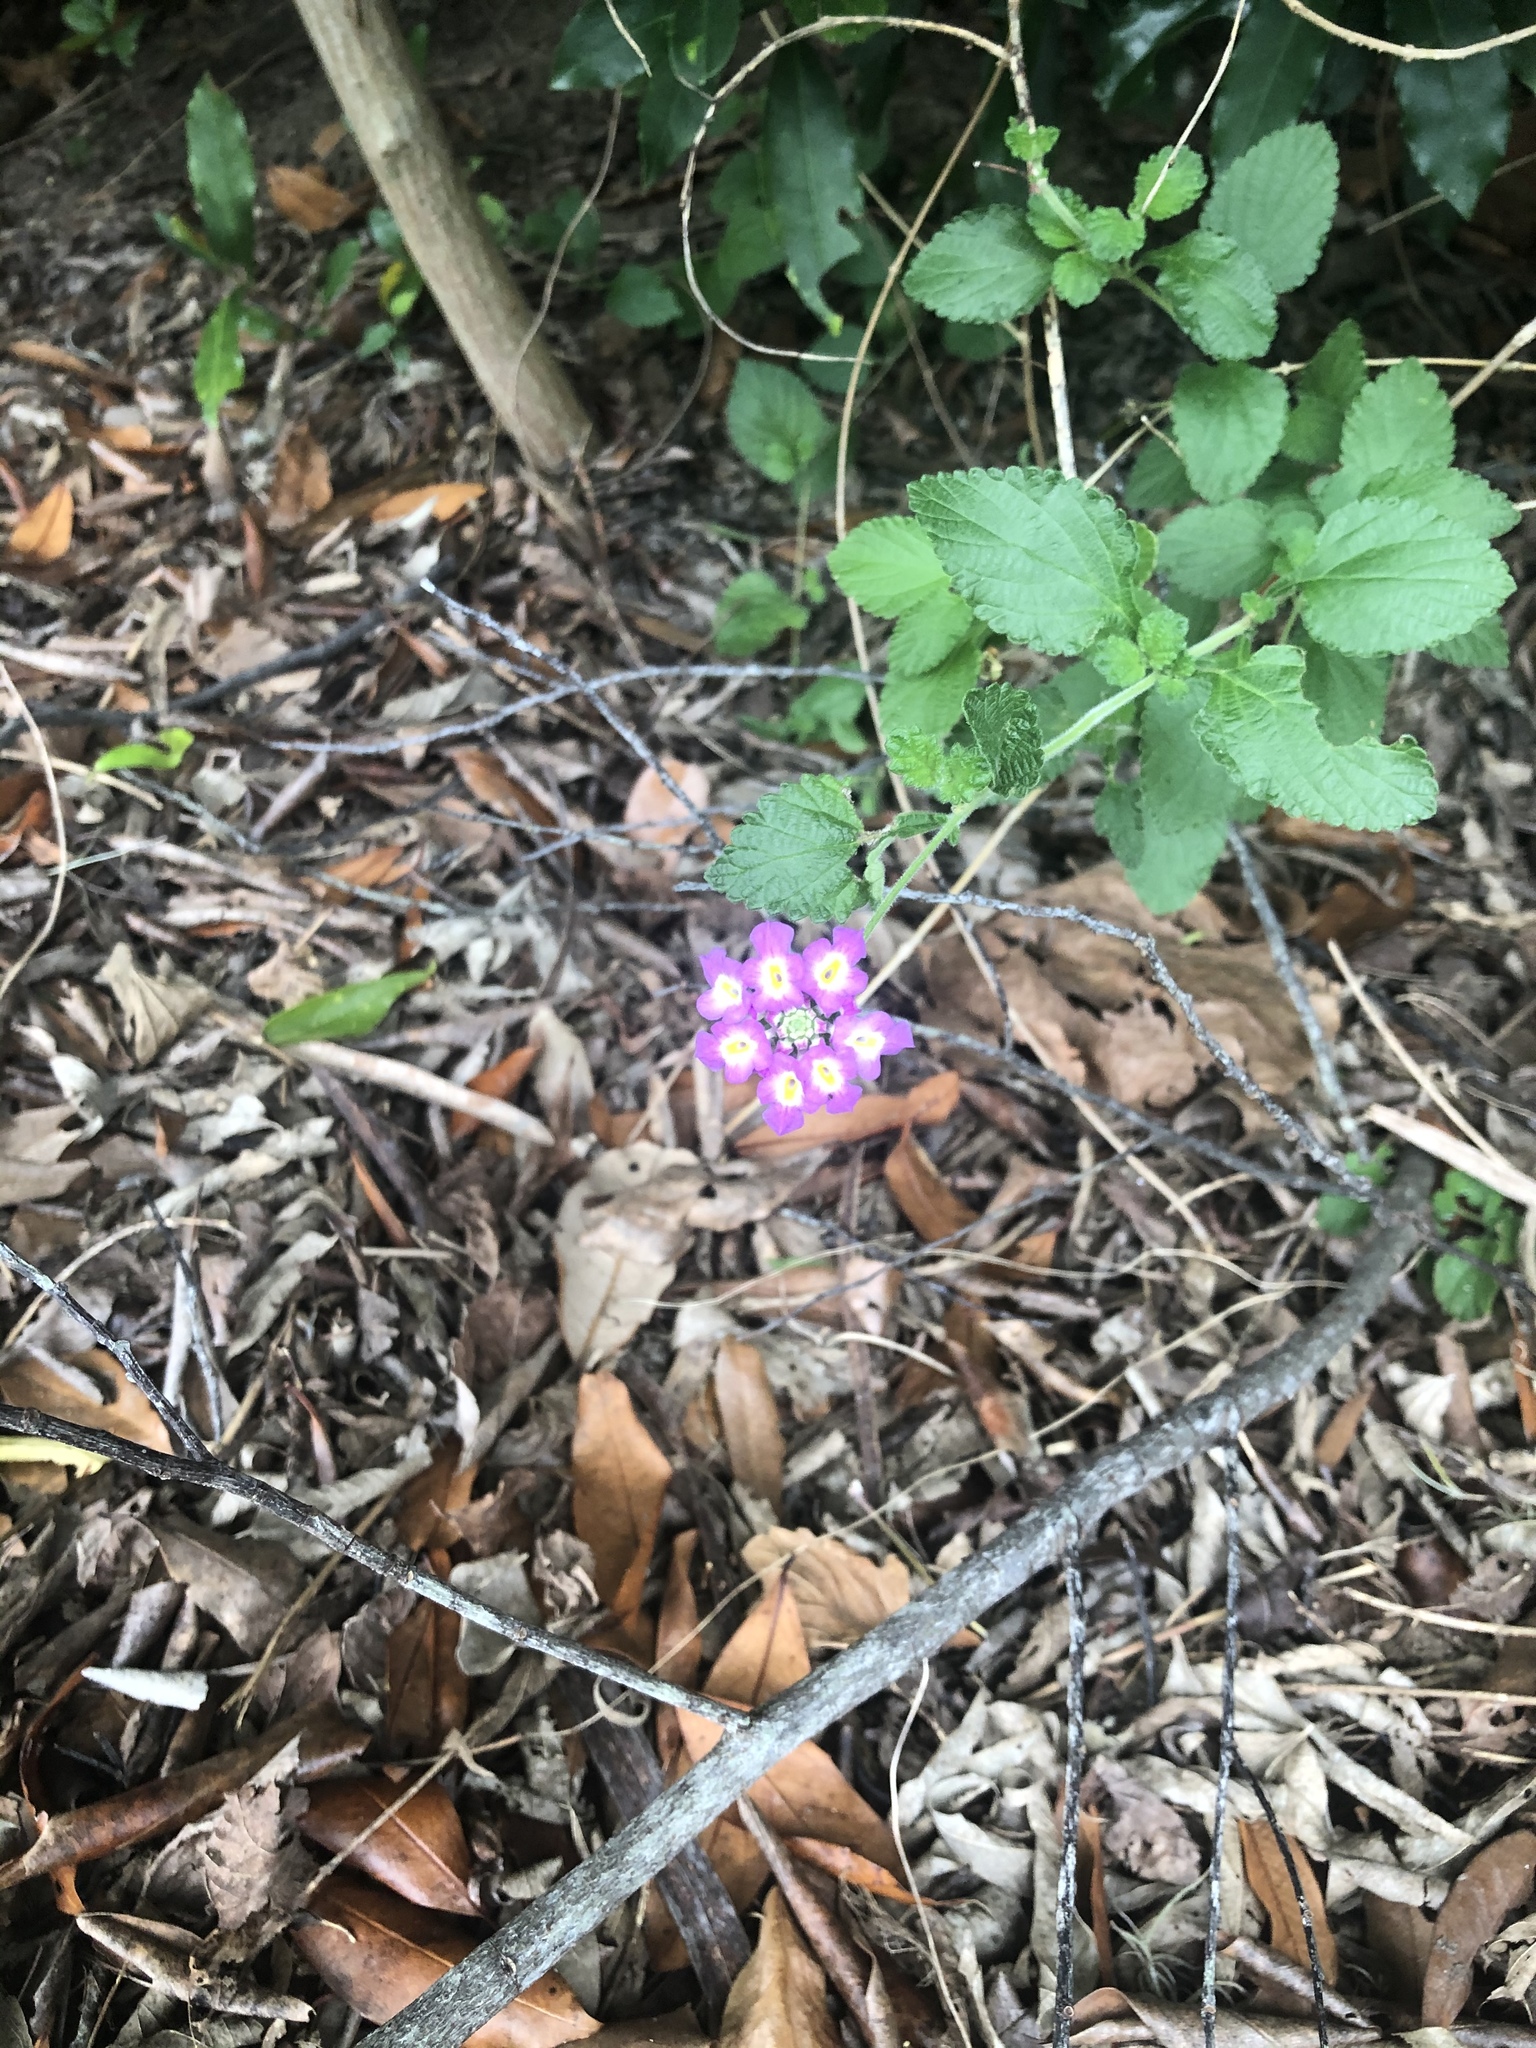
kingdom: Plantae
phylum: Tracheophyta
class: Magnoliopsida
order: Lamiales
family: Verbenaceae
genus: Lantana
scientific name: Lantana montevidensis
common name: Trailing shrubverbena
